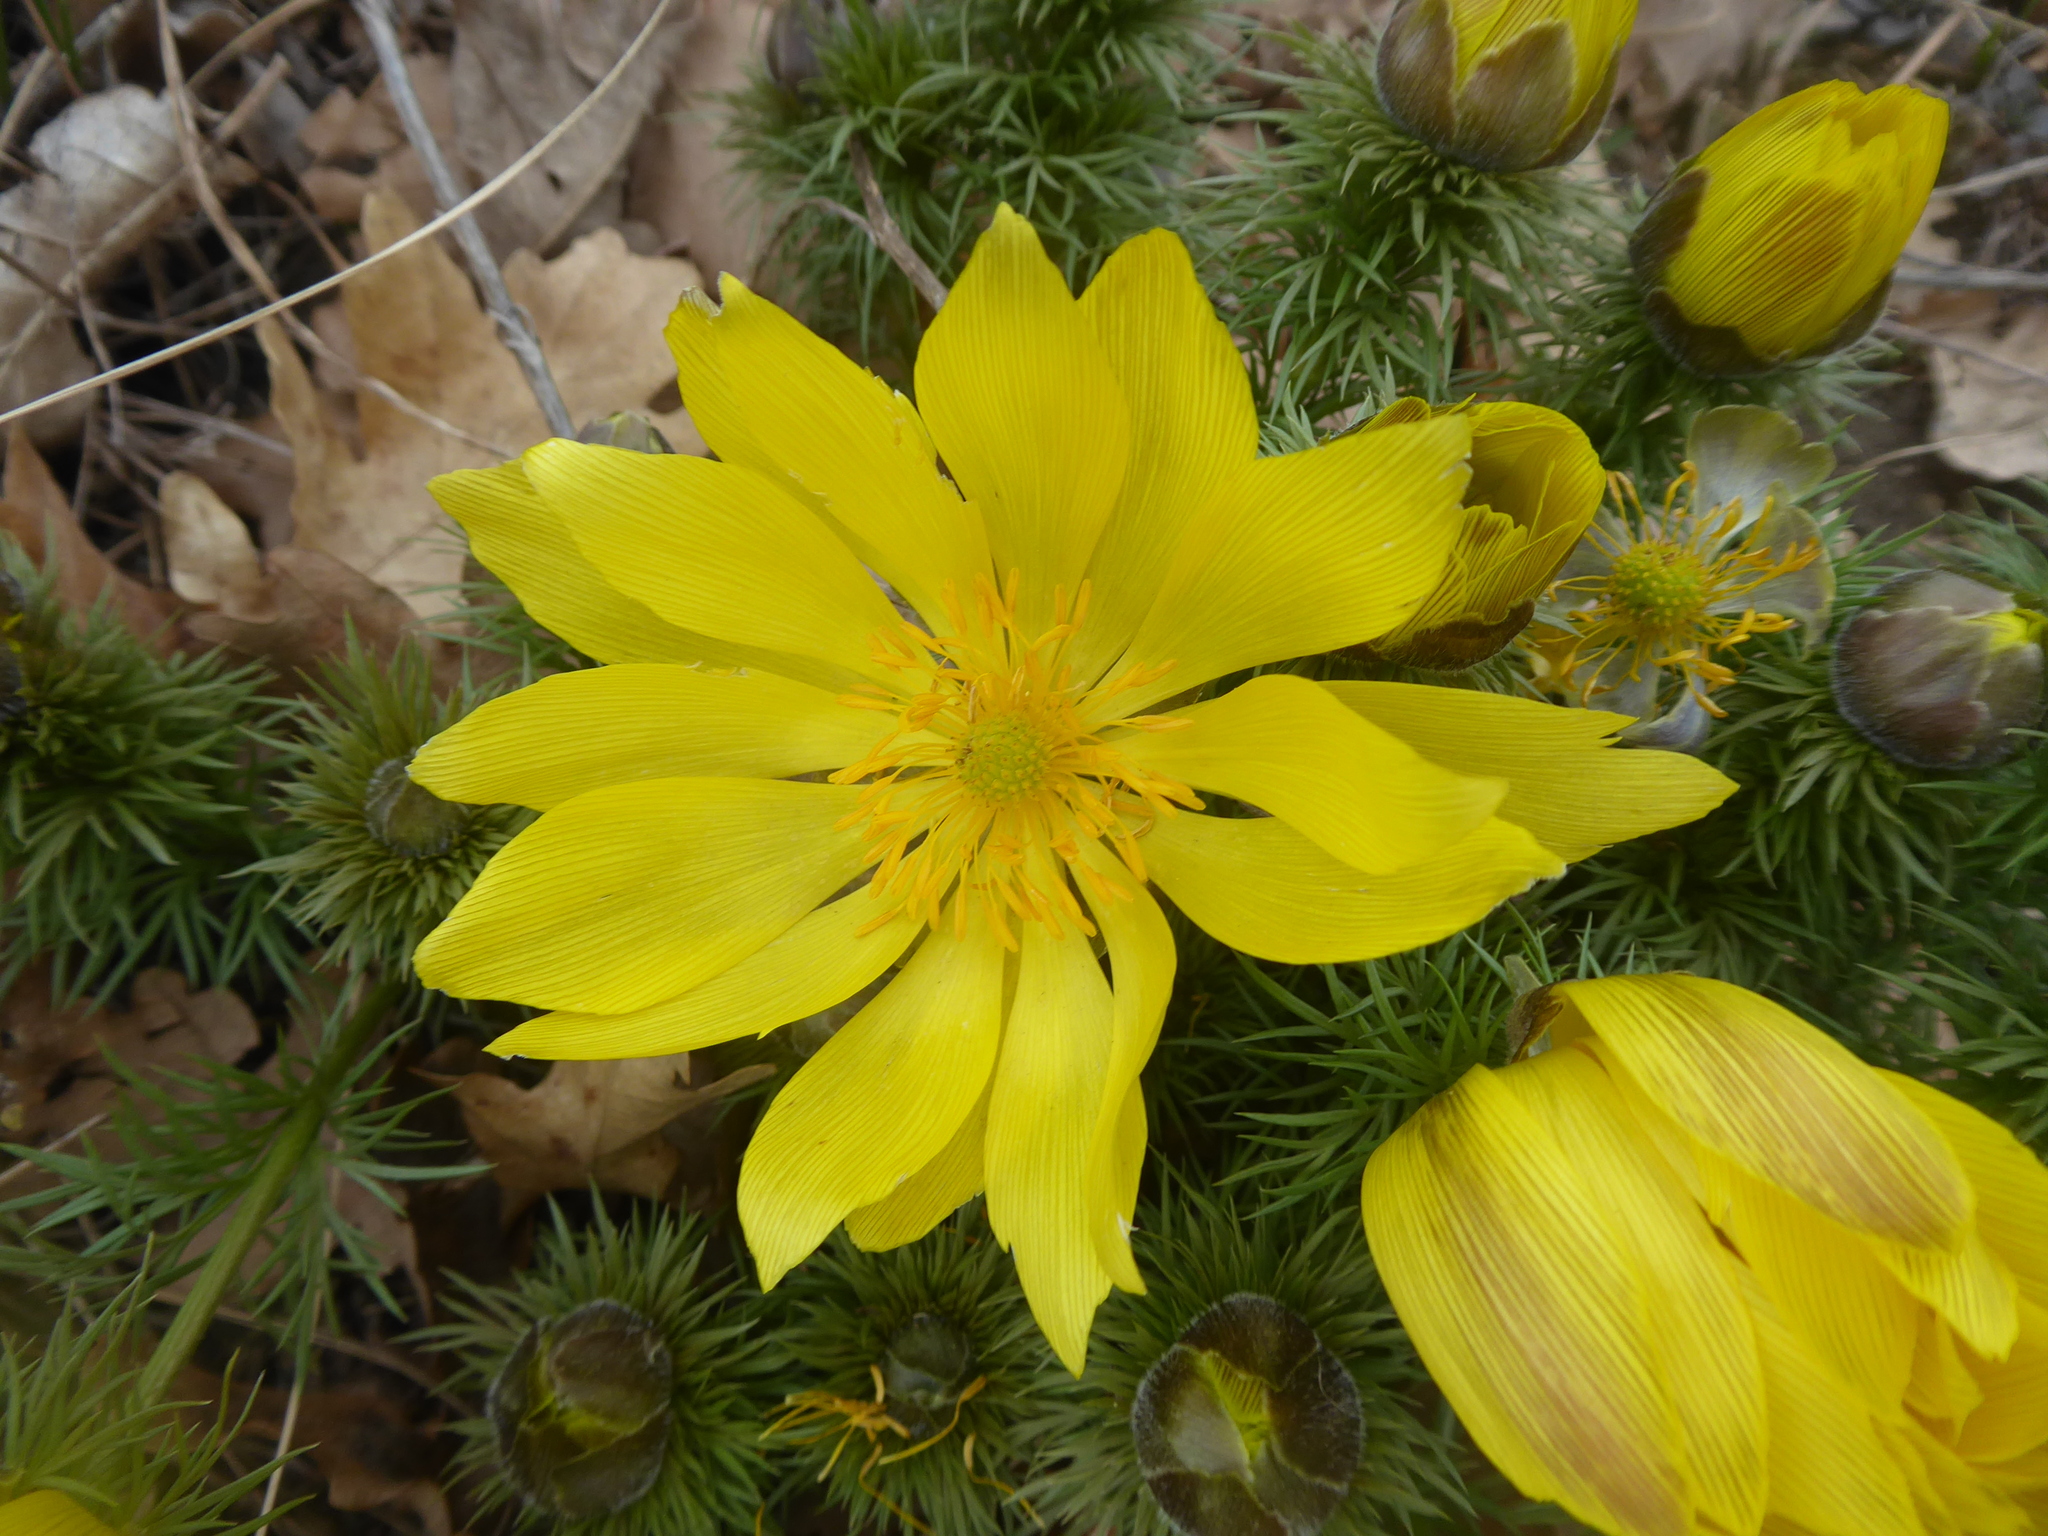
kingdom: Plantae
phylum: Tracheophyta
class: Magnoliopsida
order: Ranunculales
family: Ranunculaceae
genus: Adonis
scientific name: Adonis vernalis
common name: Yellow pheasants-eye
